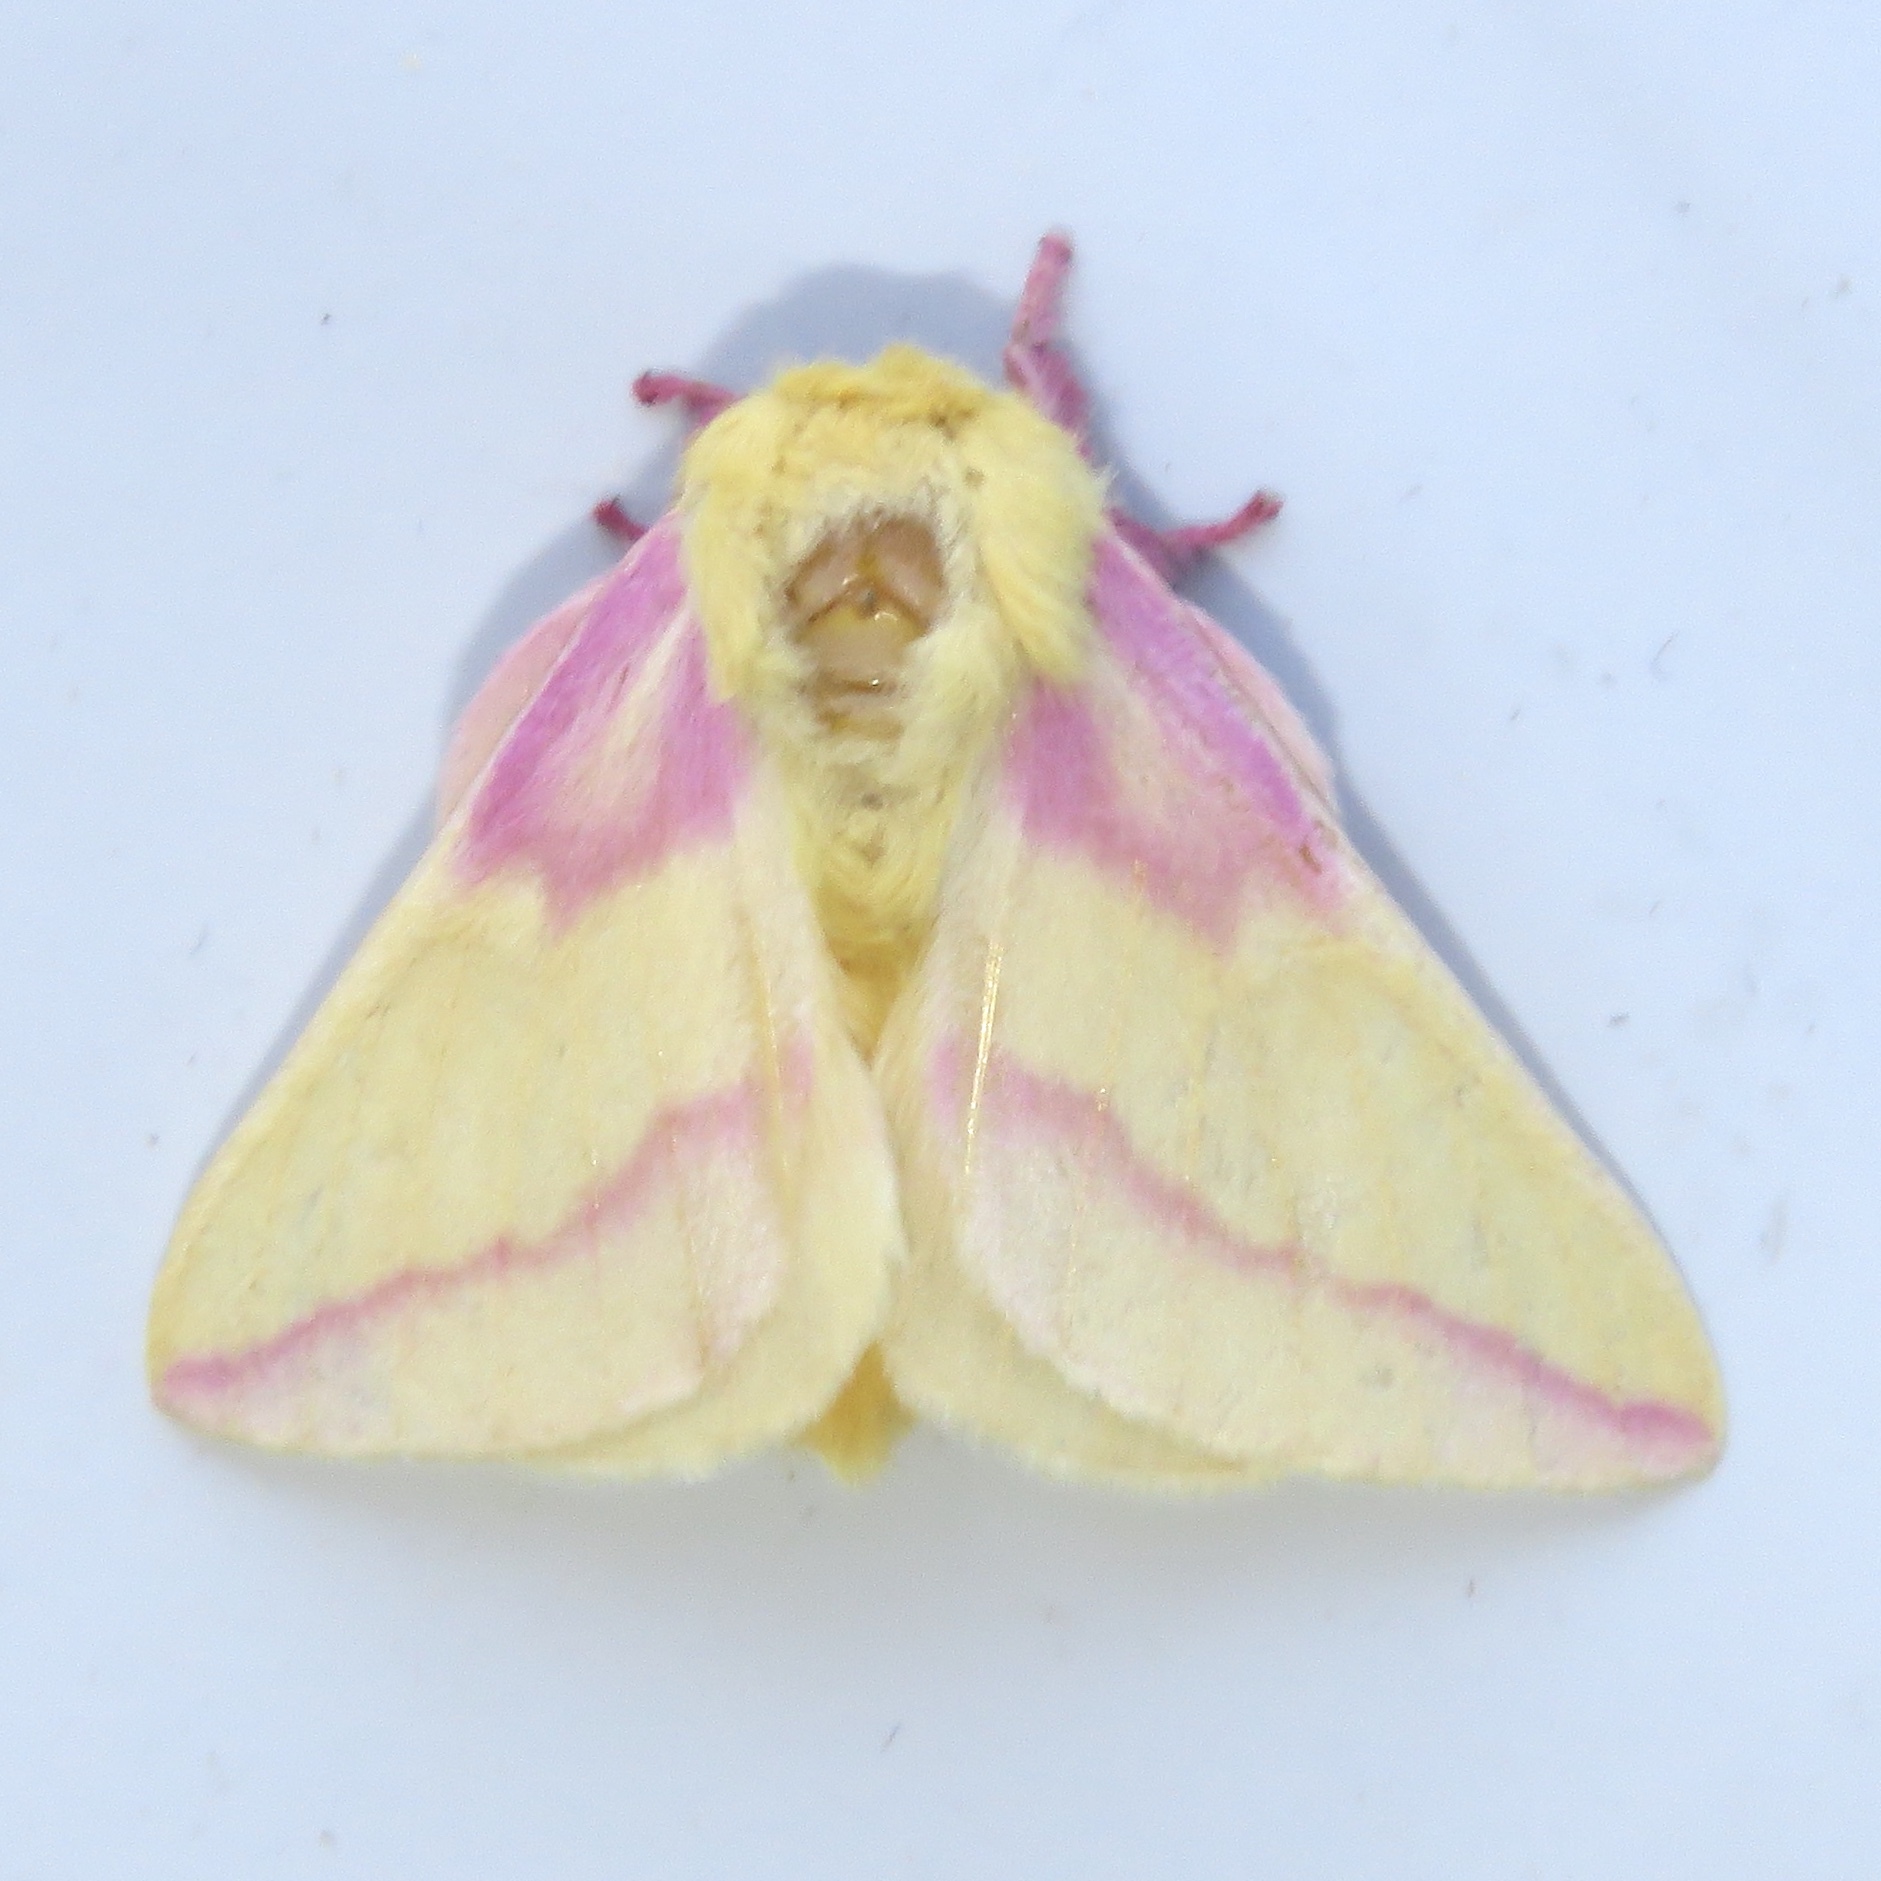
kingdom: Animalia
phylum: Arthropoda
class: Insecta
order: Lepidoptera
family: Saturniidae
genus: Dryocampa
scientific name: Dryocampa rubicunda
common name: Rosy maple moth
